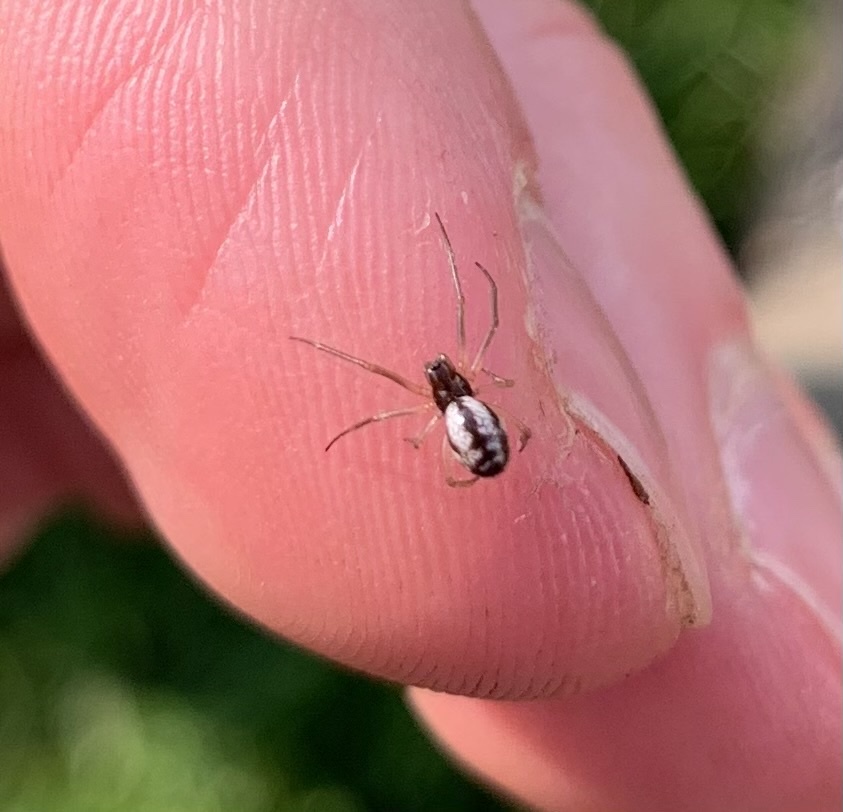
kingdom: Animalia
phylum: Arthropoda
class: Arachnida
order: Araneae
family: Linyphiidae
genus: Microlinyphia
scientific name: Microlinyphia pusilla
